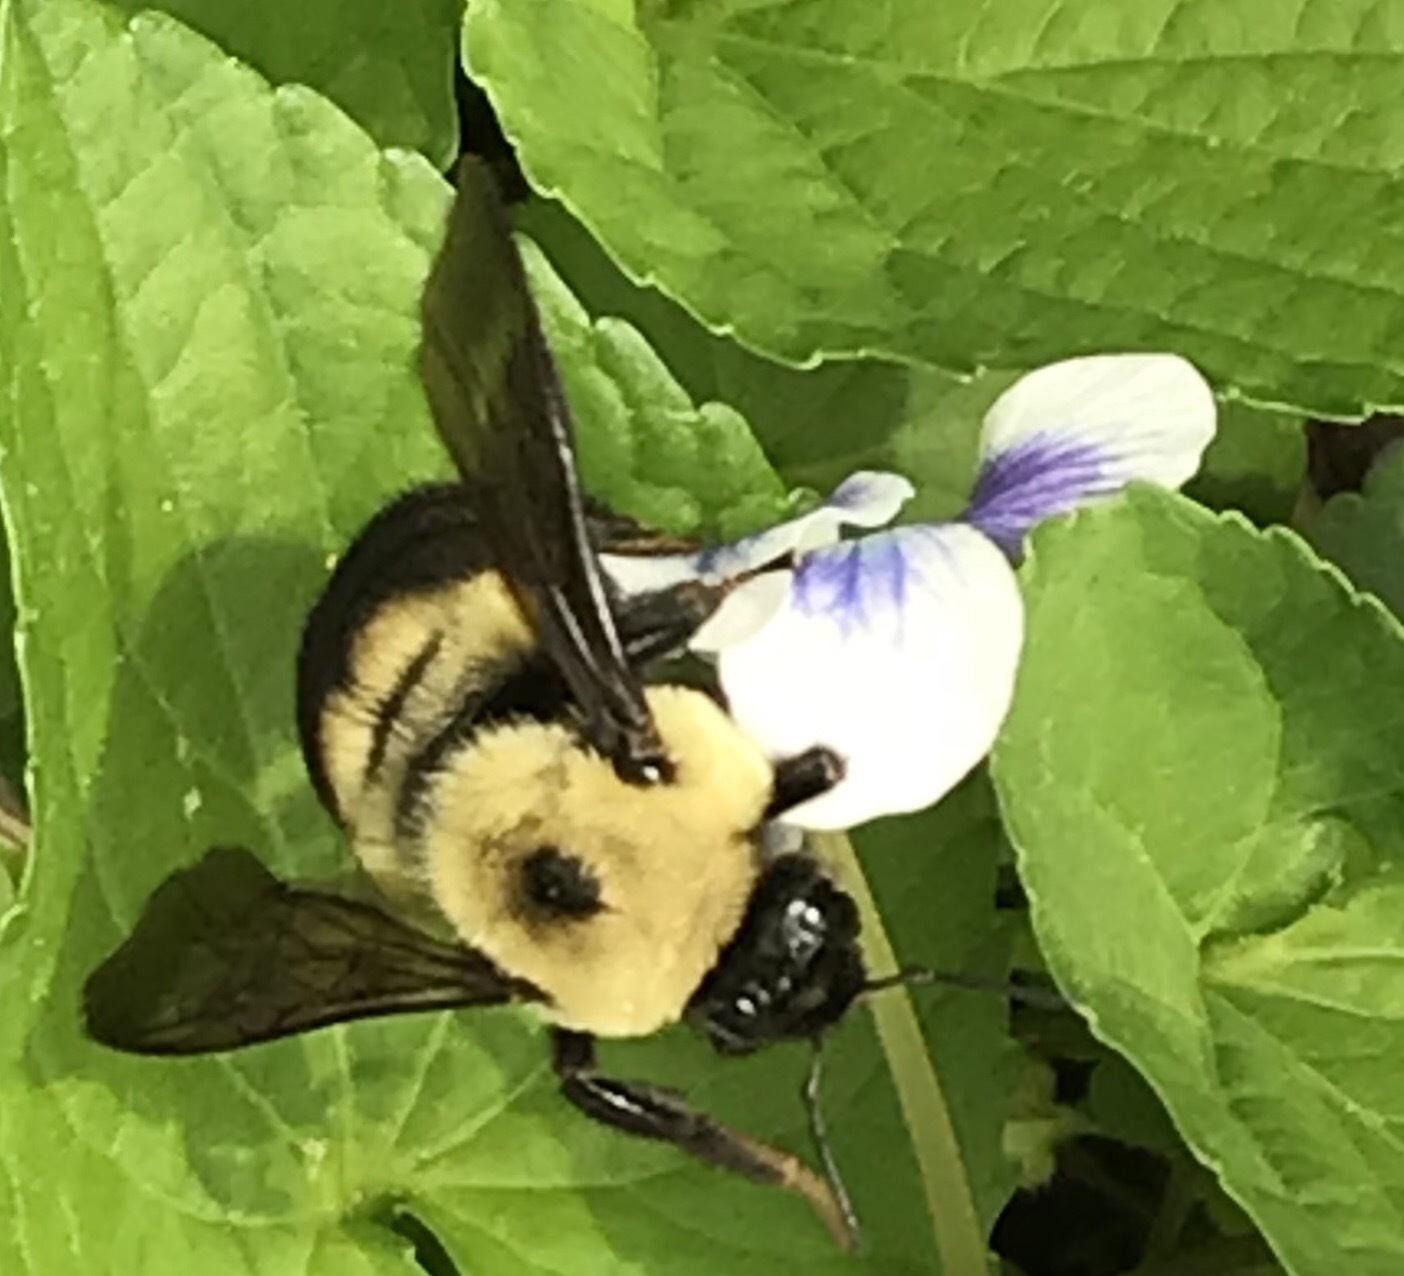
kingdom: Animalia
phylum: Arthropoda
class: Insecta
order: Hymenoptera
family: Apidae
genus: Bombus
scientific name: Bombus griseocollis
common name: Brown-belted bumble bee
